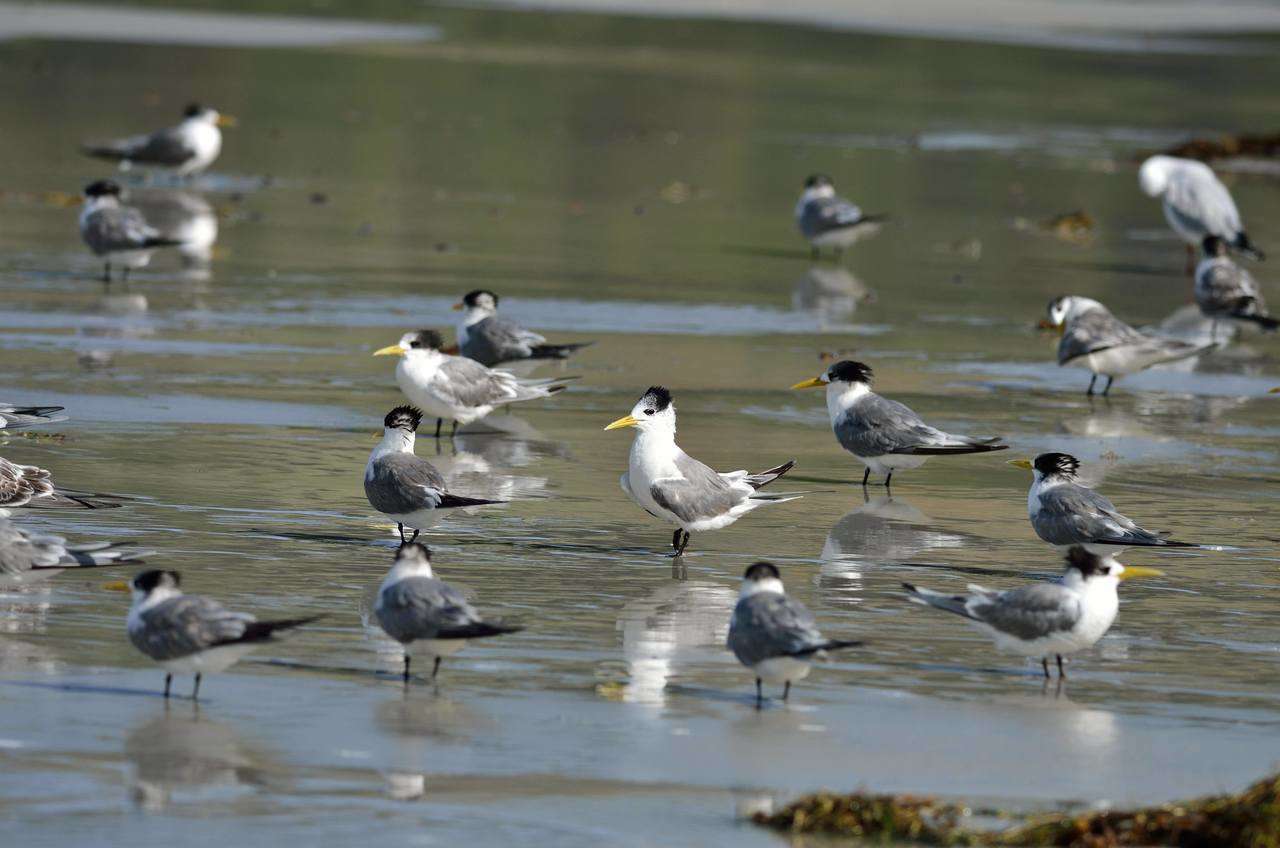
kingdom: Animalia
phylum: Chordata
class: Aves
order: Charadriiformes
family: Laridae
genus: Thalasseus
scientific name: Thalasseus bergii
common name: Greater crested tern
